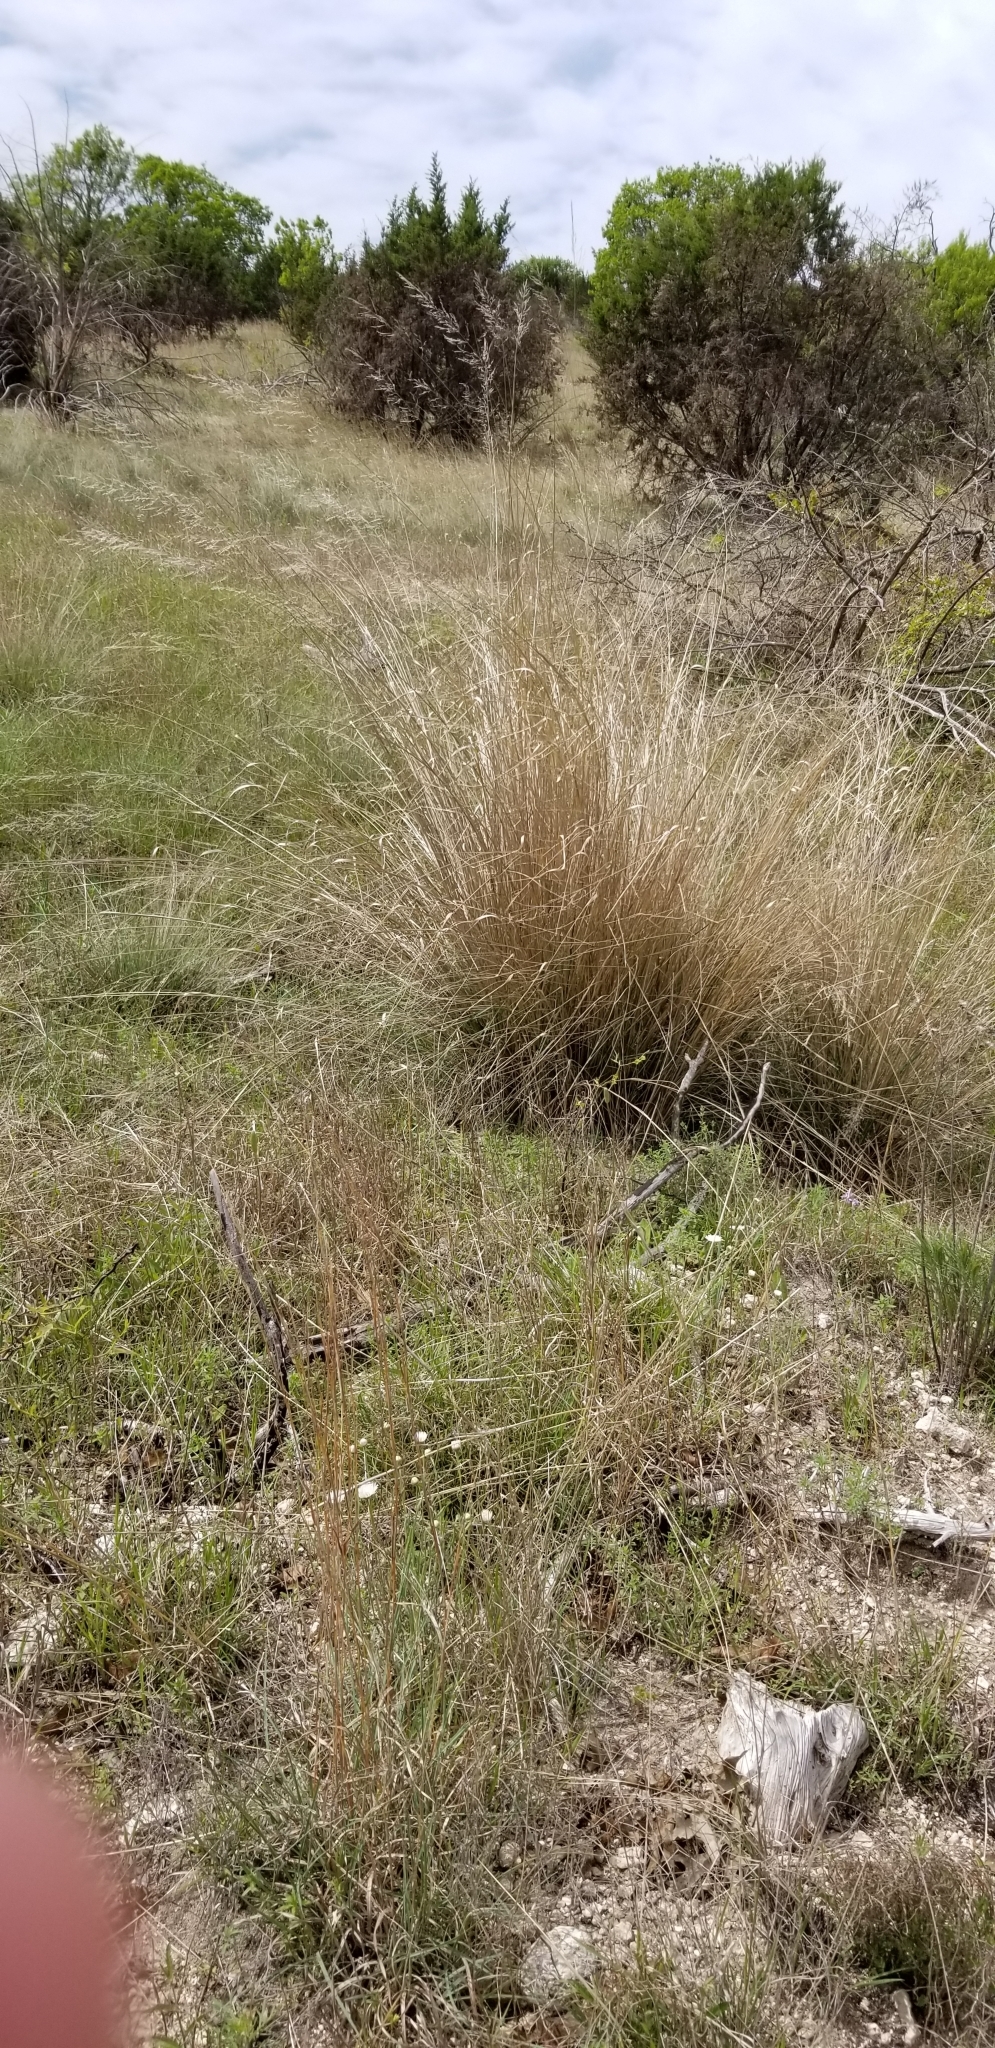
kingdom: Plantae
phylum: Tracheophyta
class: Liliopsida
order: Poales
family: Poaceae
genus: Muhlenbergia
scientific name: Muhlenbergia lindheimeri
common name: Lindheimer's muhly
